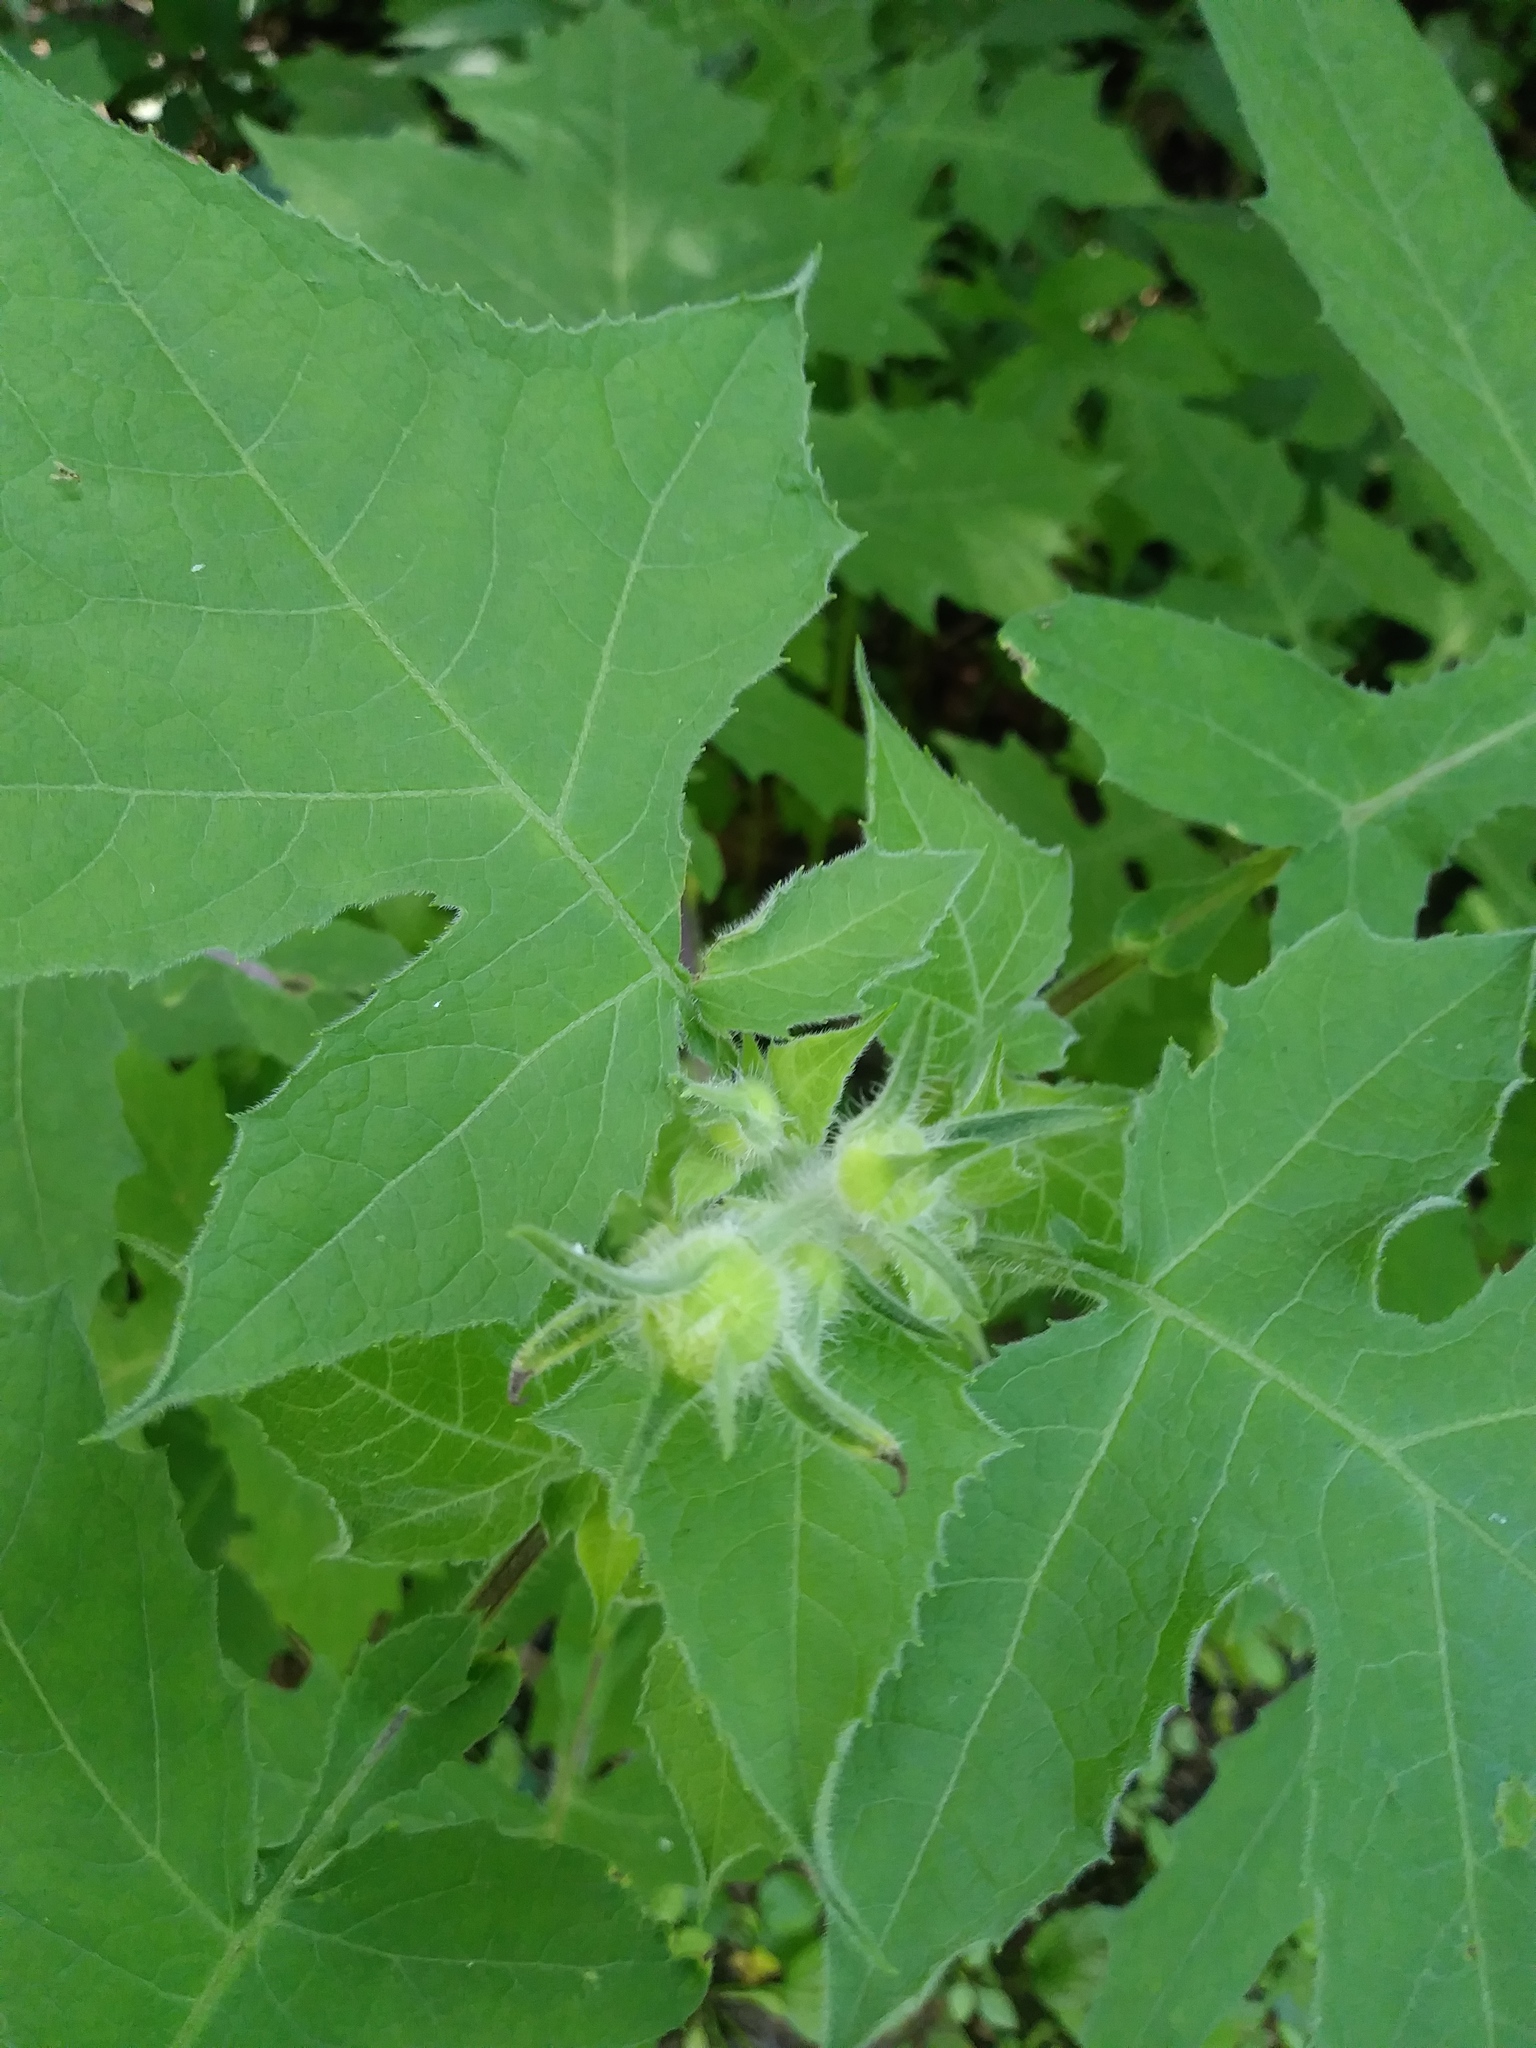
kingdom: Plantae
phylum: Tracheophyta
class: Magnoliopsida
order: Asterales
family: Asteraceae
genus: Polymnia
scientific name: Polymnia canadensis
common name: Pale-flowered leafcup
